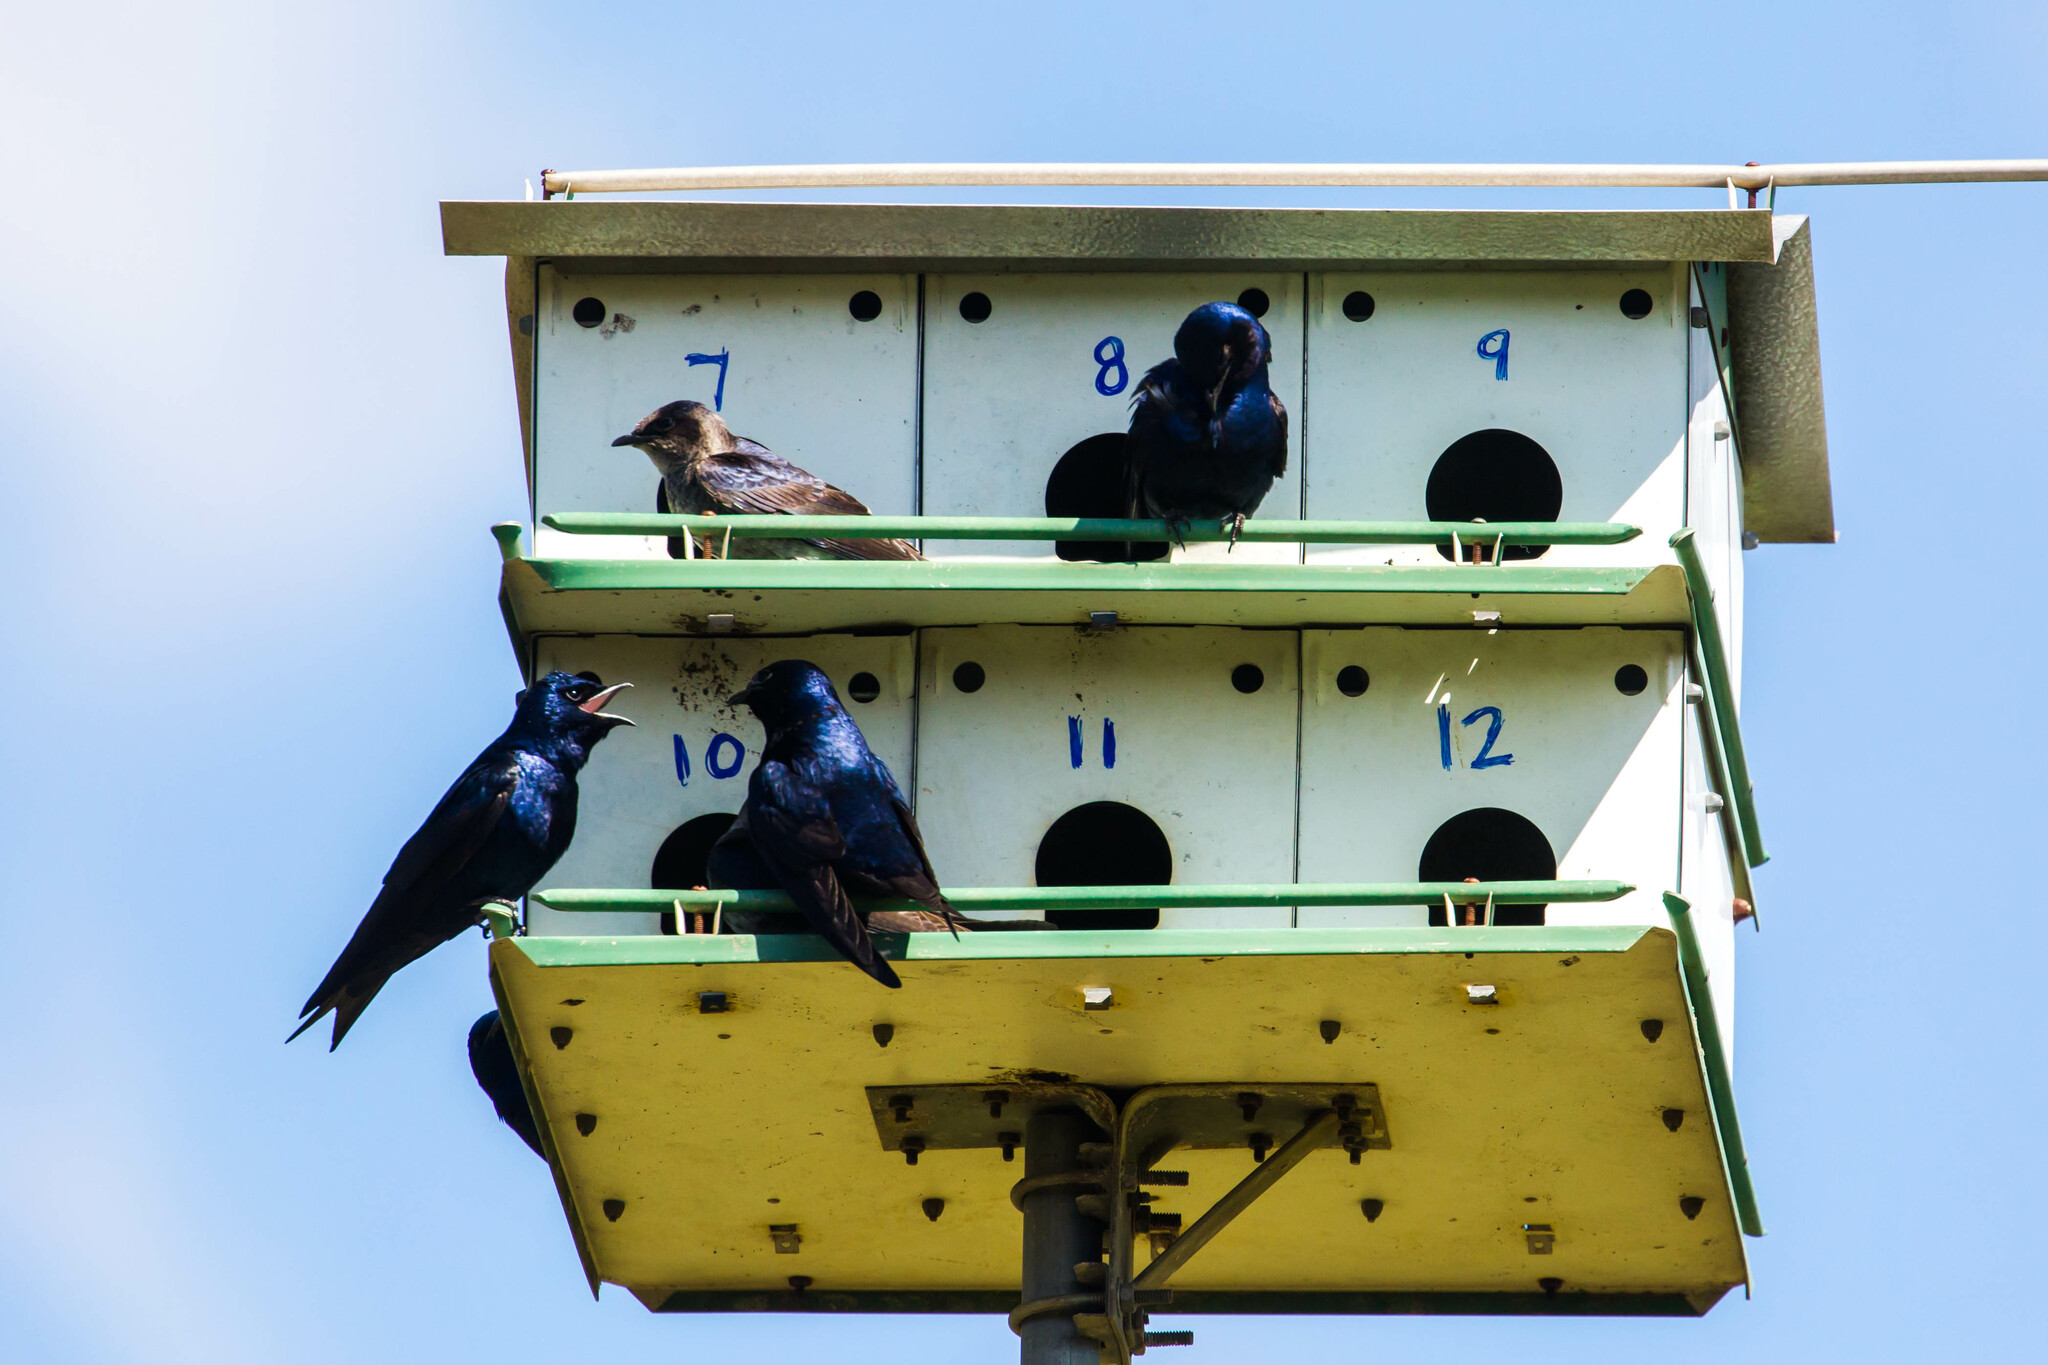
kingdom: Animalia
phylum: Chordata
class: Aves
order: Passeriformes
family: Hirundinidae
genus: Progne
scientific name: Progne subis
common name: Purple martin
